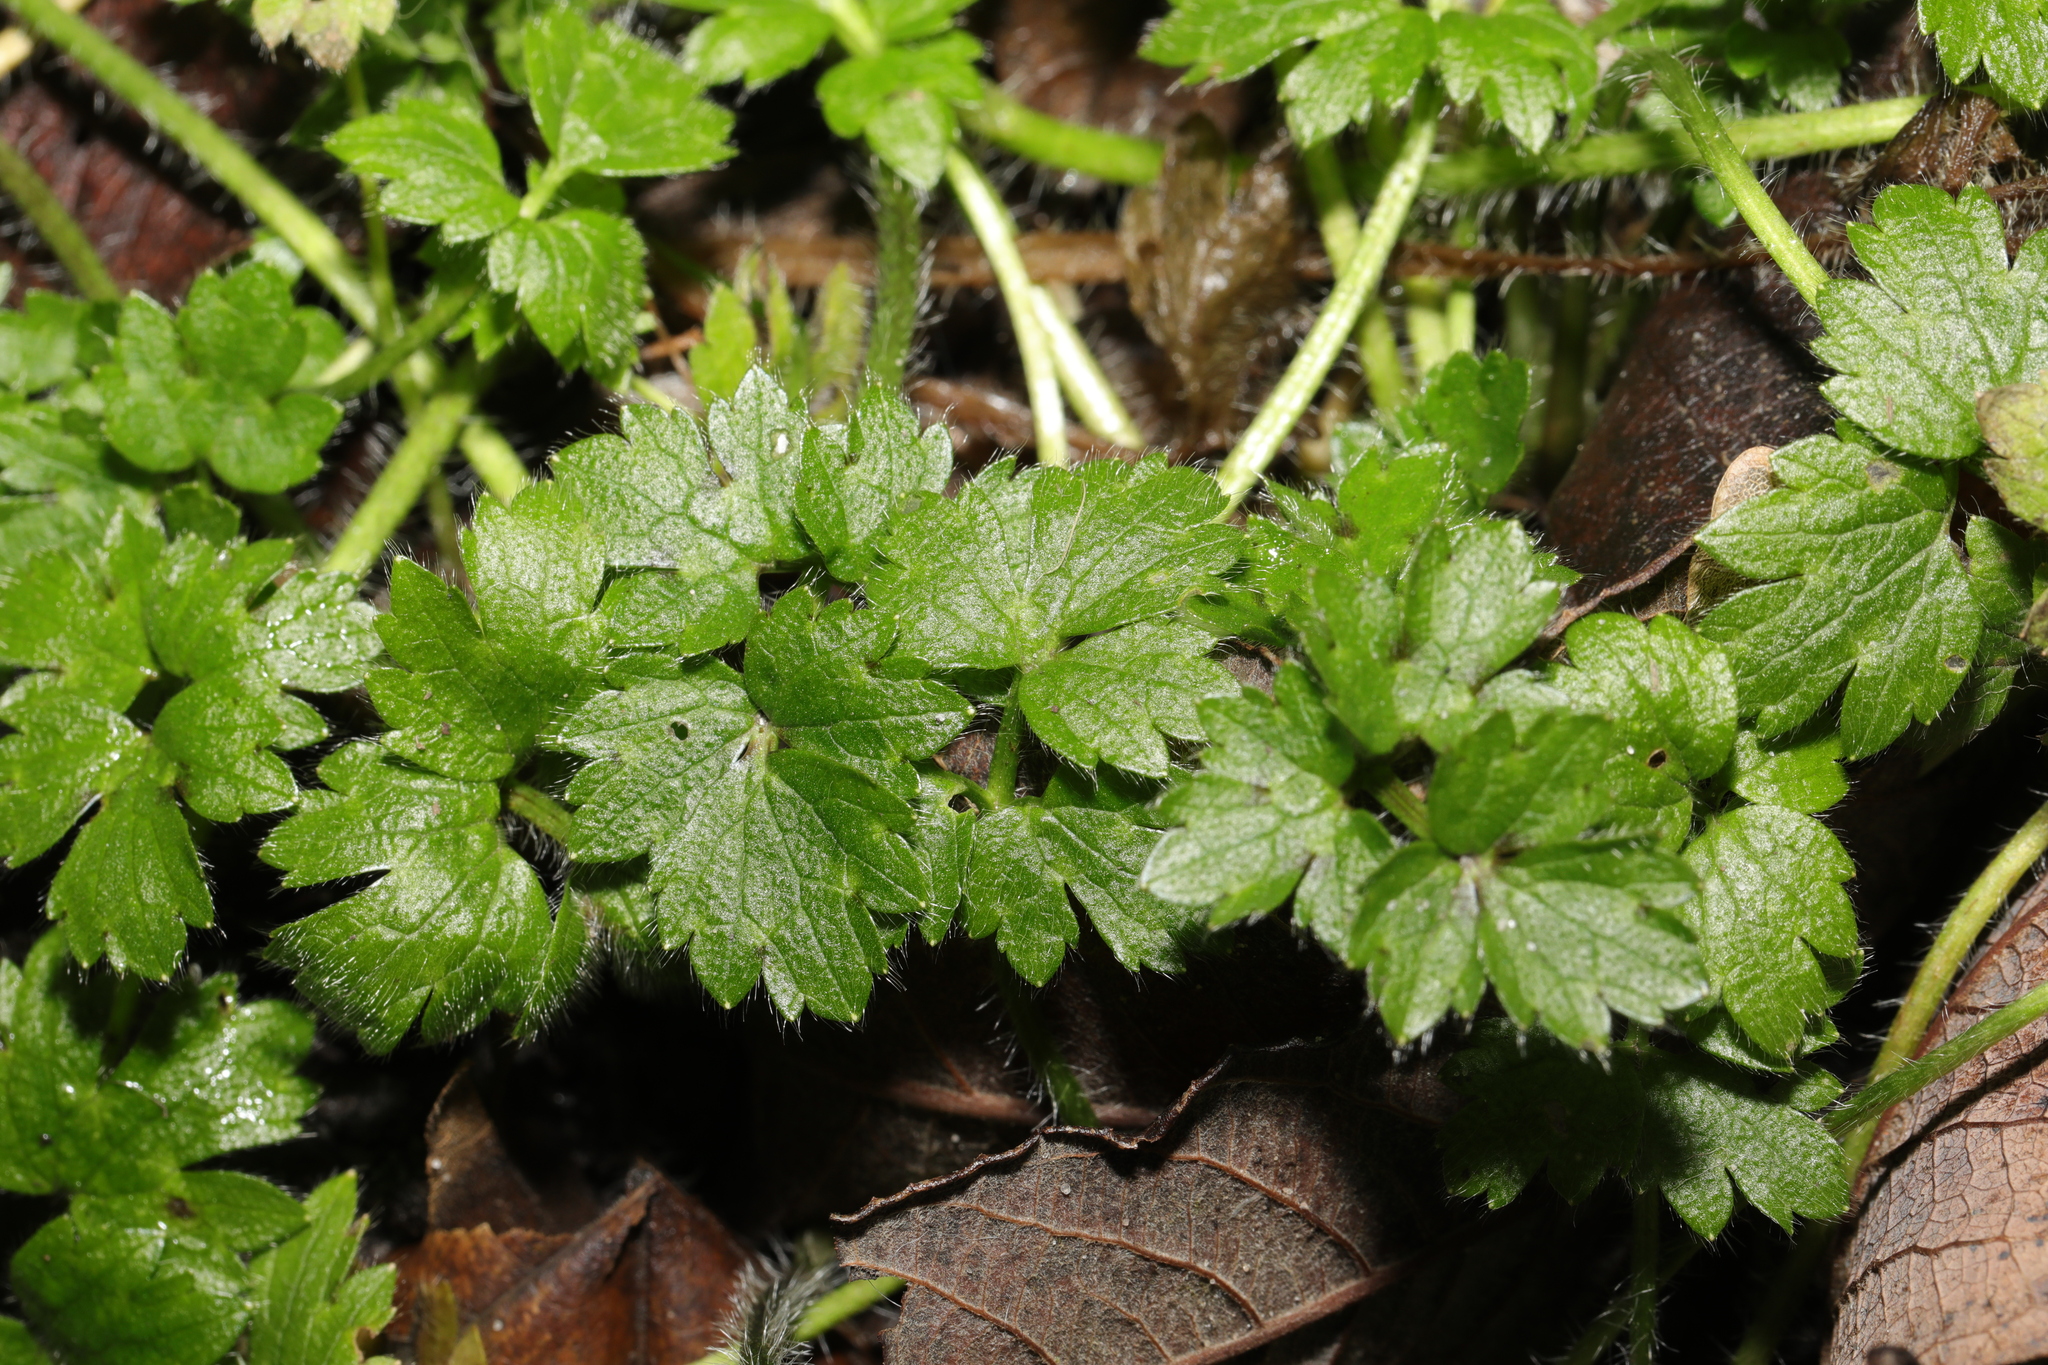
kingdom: Plantae
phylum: Tracheophyta
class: Magnoliopsida
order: Ranunculales
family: Ranunculaceae
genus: Ranunculus
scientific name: Ranunculus repens
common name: Creeping buttercup
